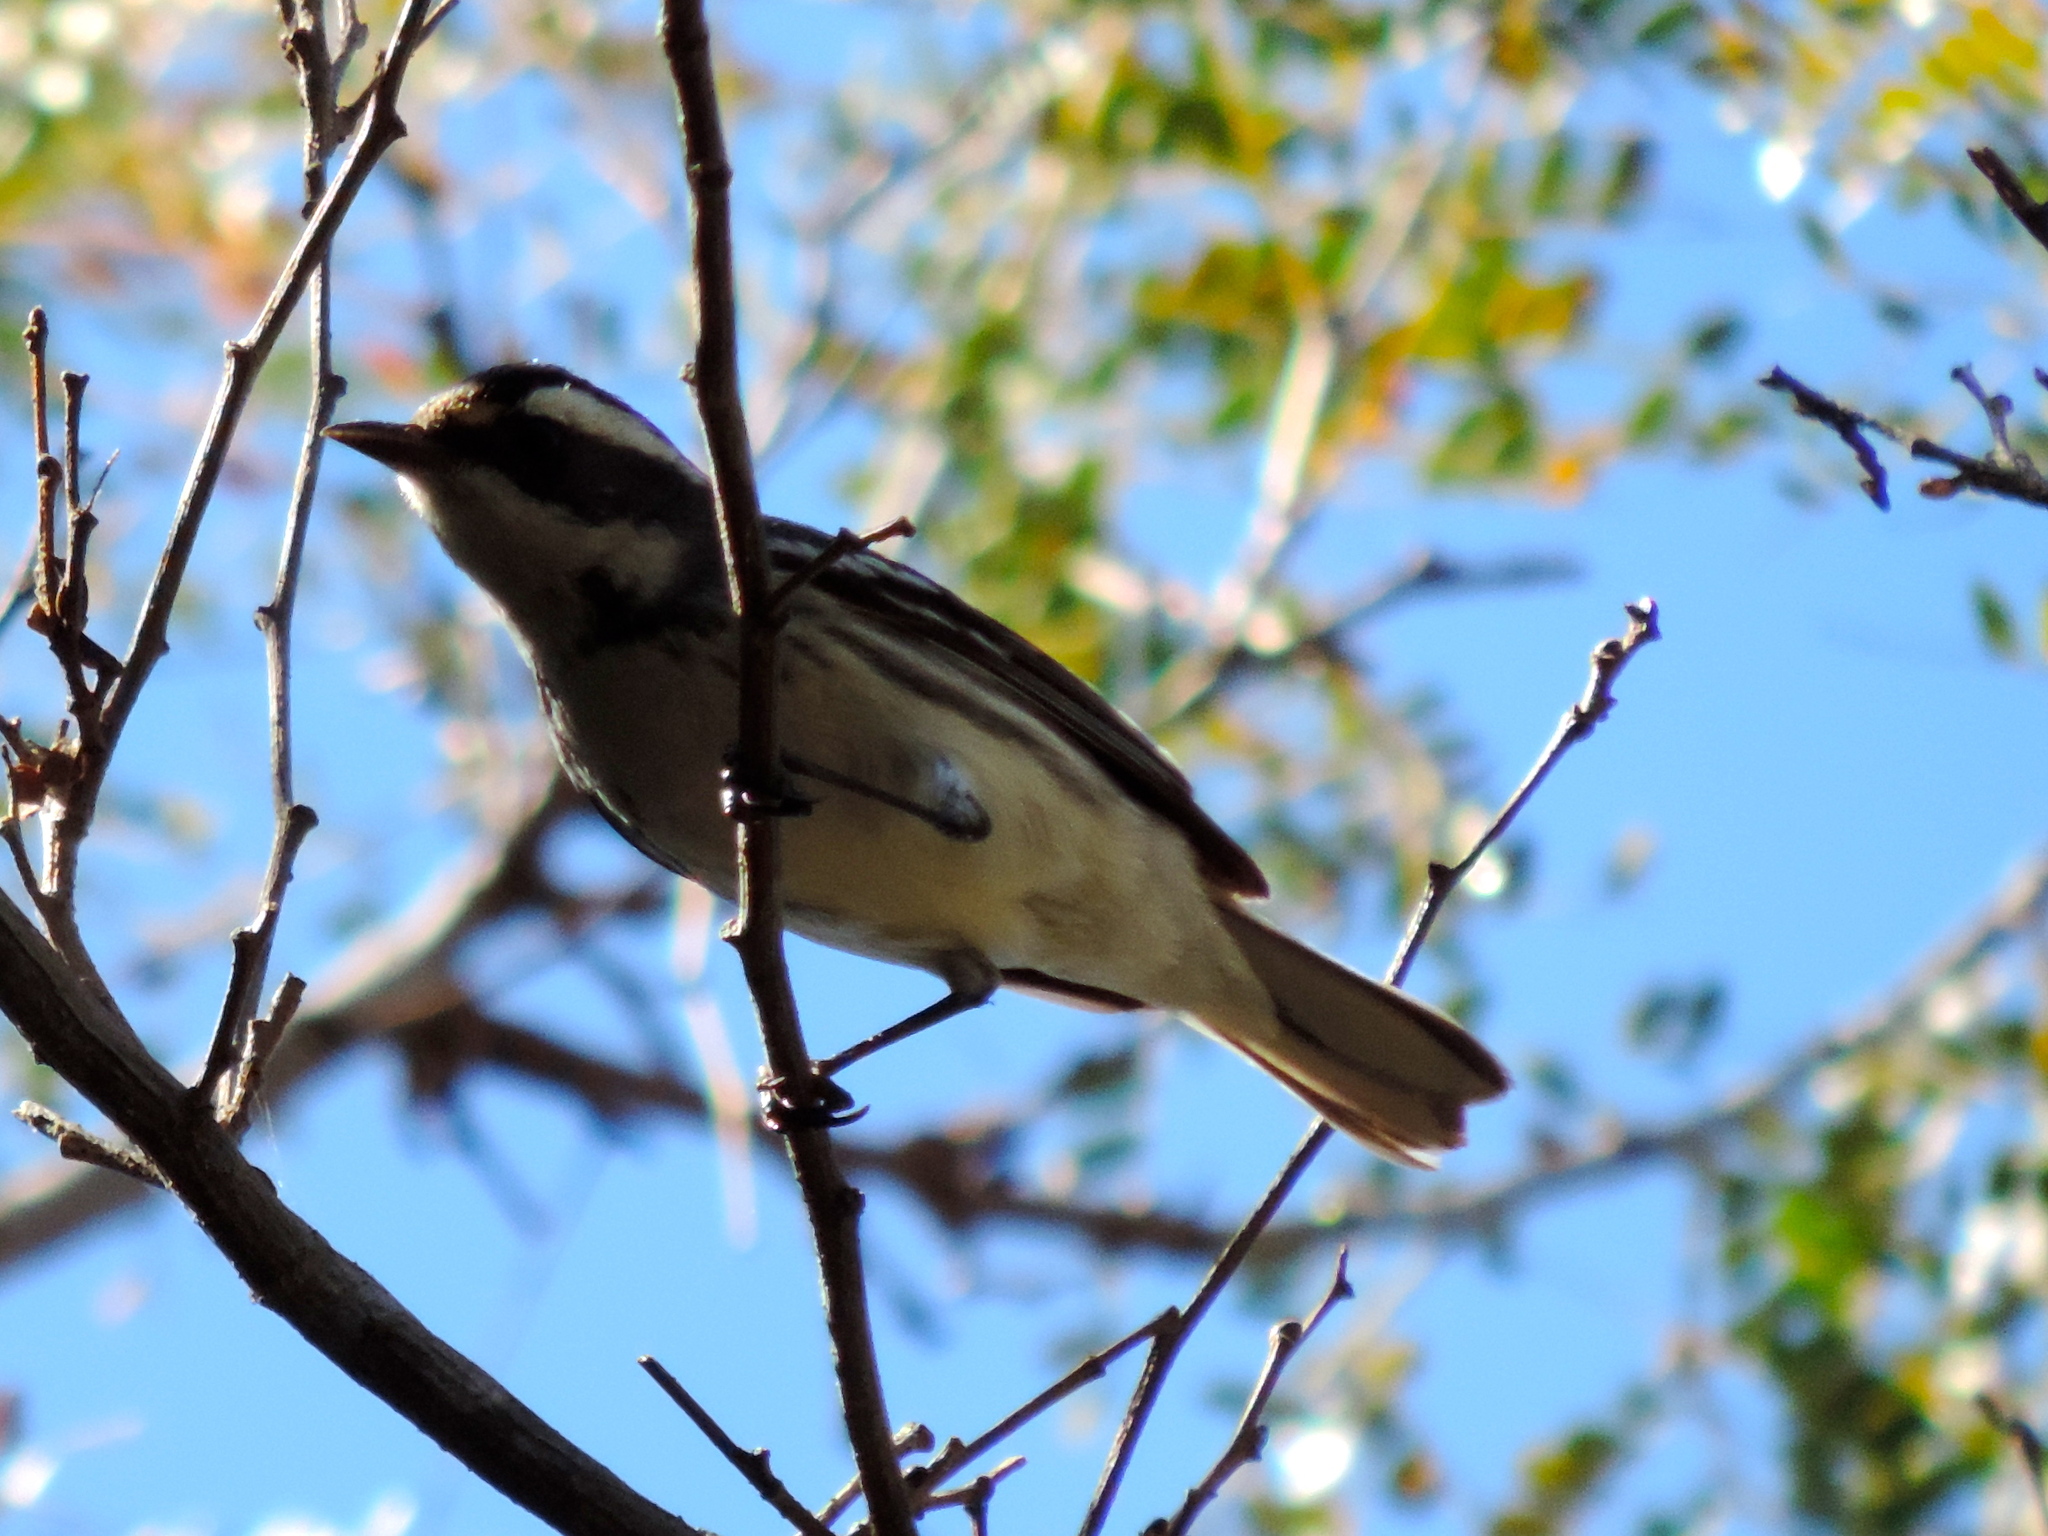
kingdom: Animalia
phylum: Chordata
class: Aves
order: Passeriformes
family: Parulidae
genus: Setophaga
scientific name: Setophaga nigrescens
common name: Black-throated gray warbler
